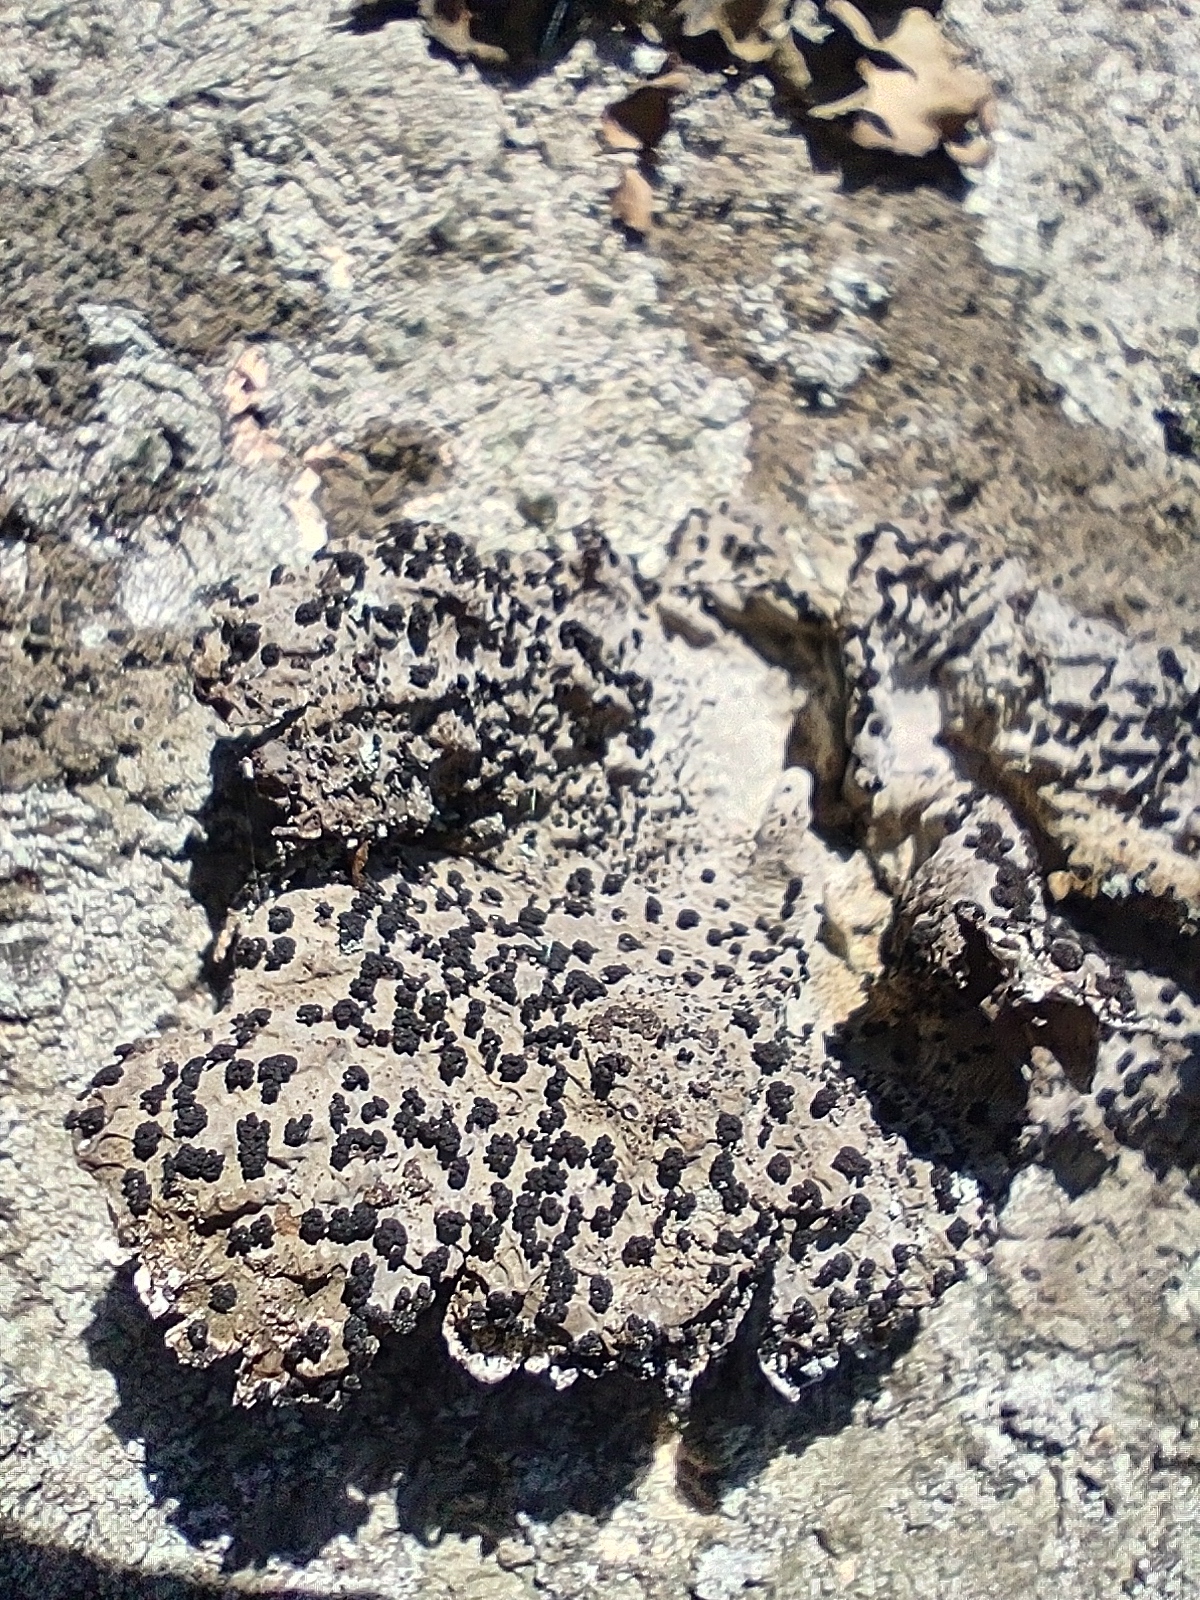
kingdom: Fungi
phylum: Ascomycota
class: Lecanoromycetes
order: Umbilicariales
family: Umbilicariaceae
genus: Lasallia
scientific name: Lasallia papulosa
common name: Common toadskin lichen
